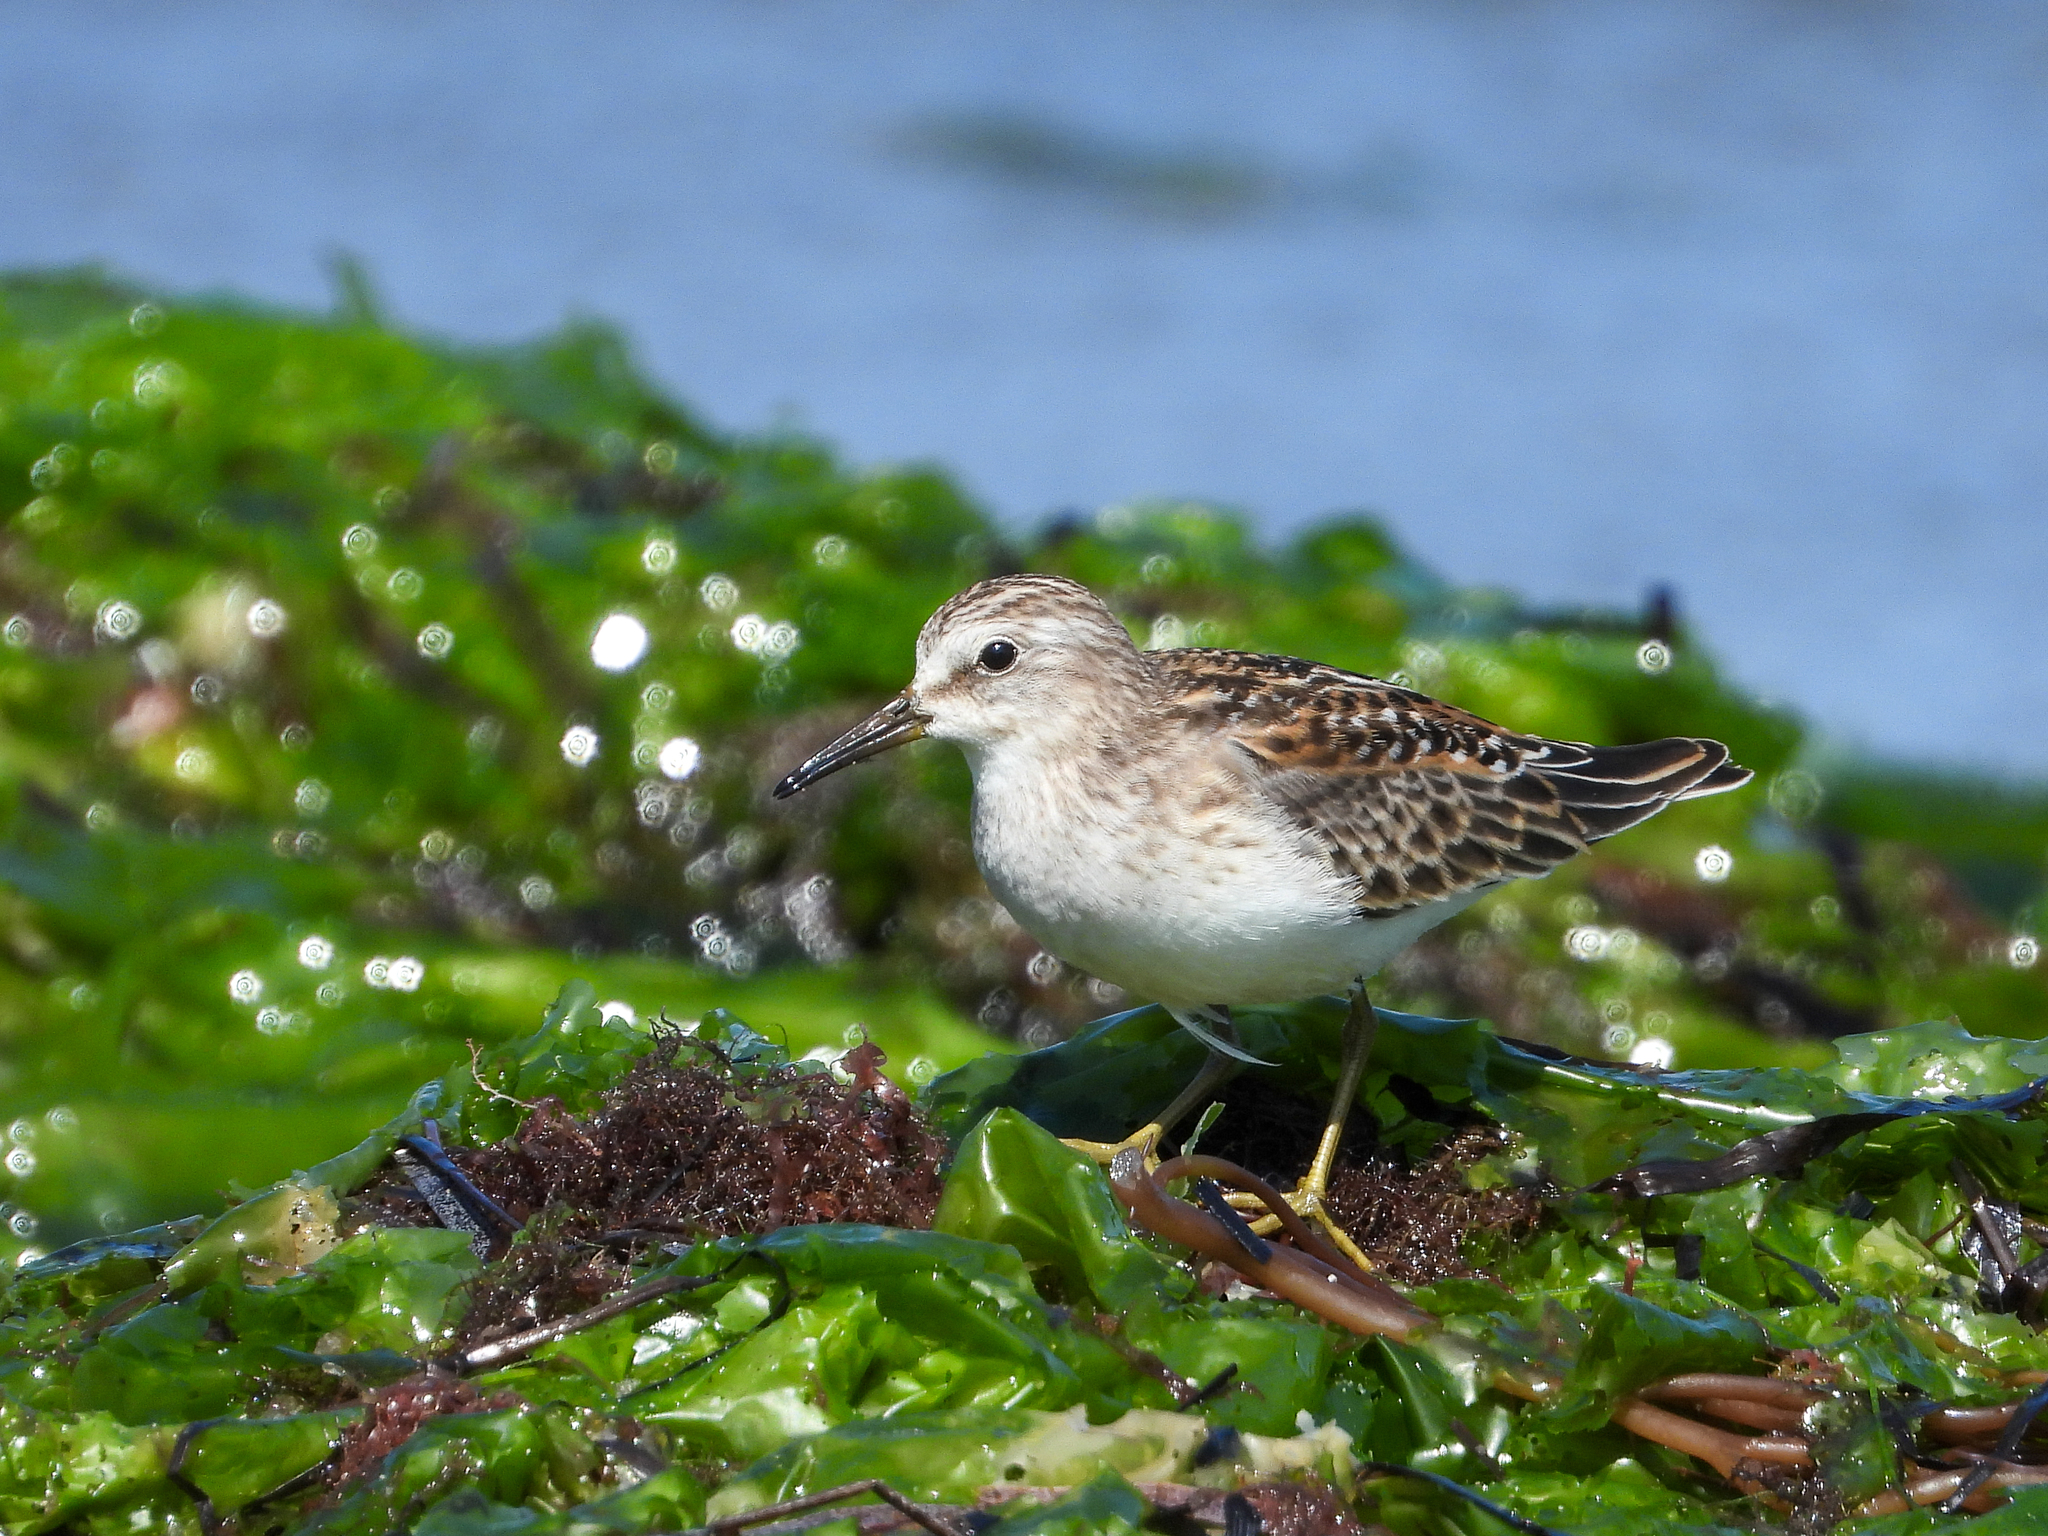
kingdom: Animalia
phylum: Chordata
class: Aves
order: Charadriiformes
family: Scolopacidae
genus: Calidris
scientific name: Calidris minutilla
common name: Least sandpiper
